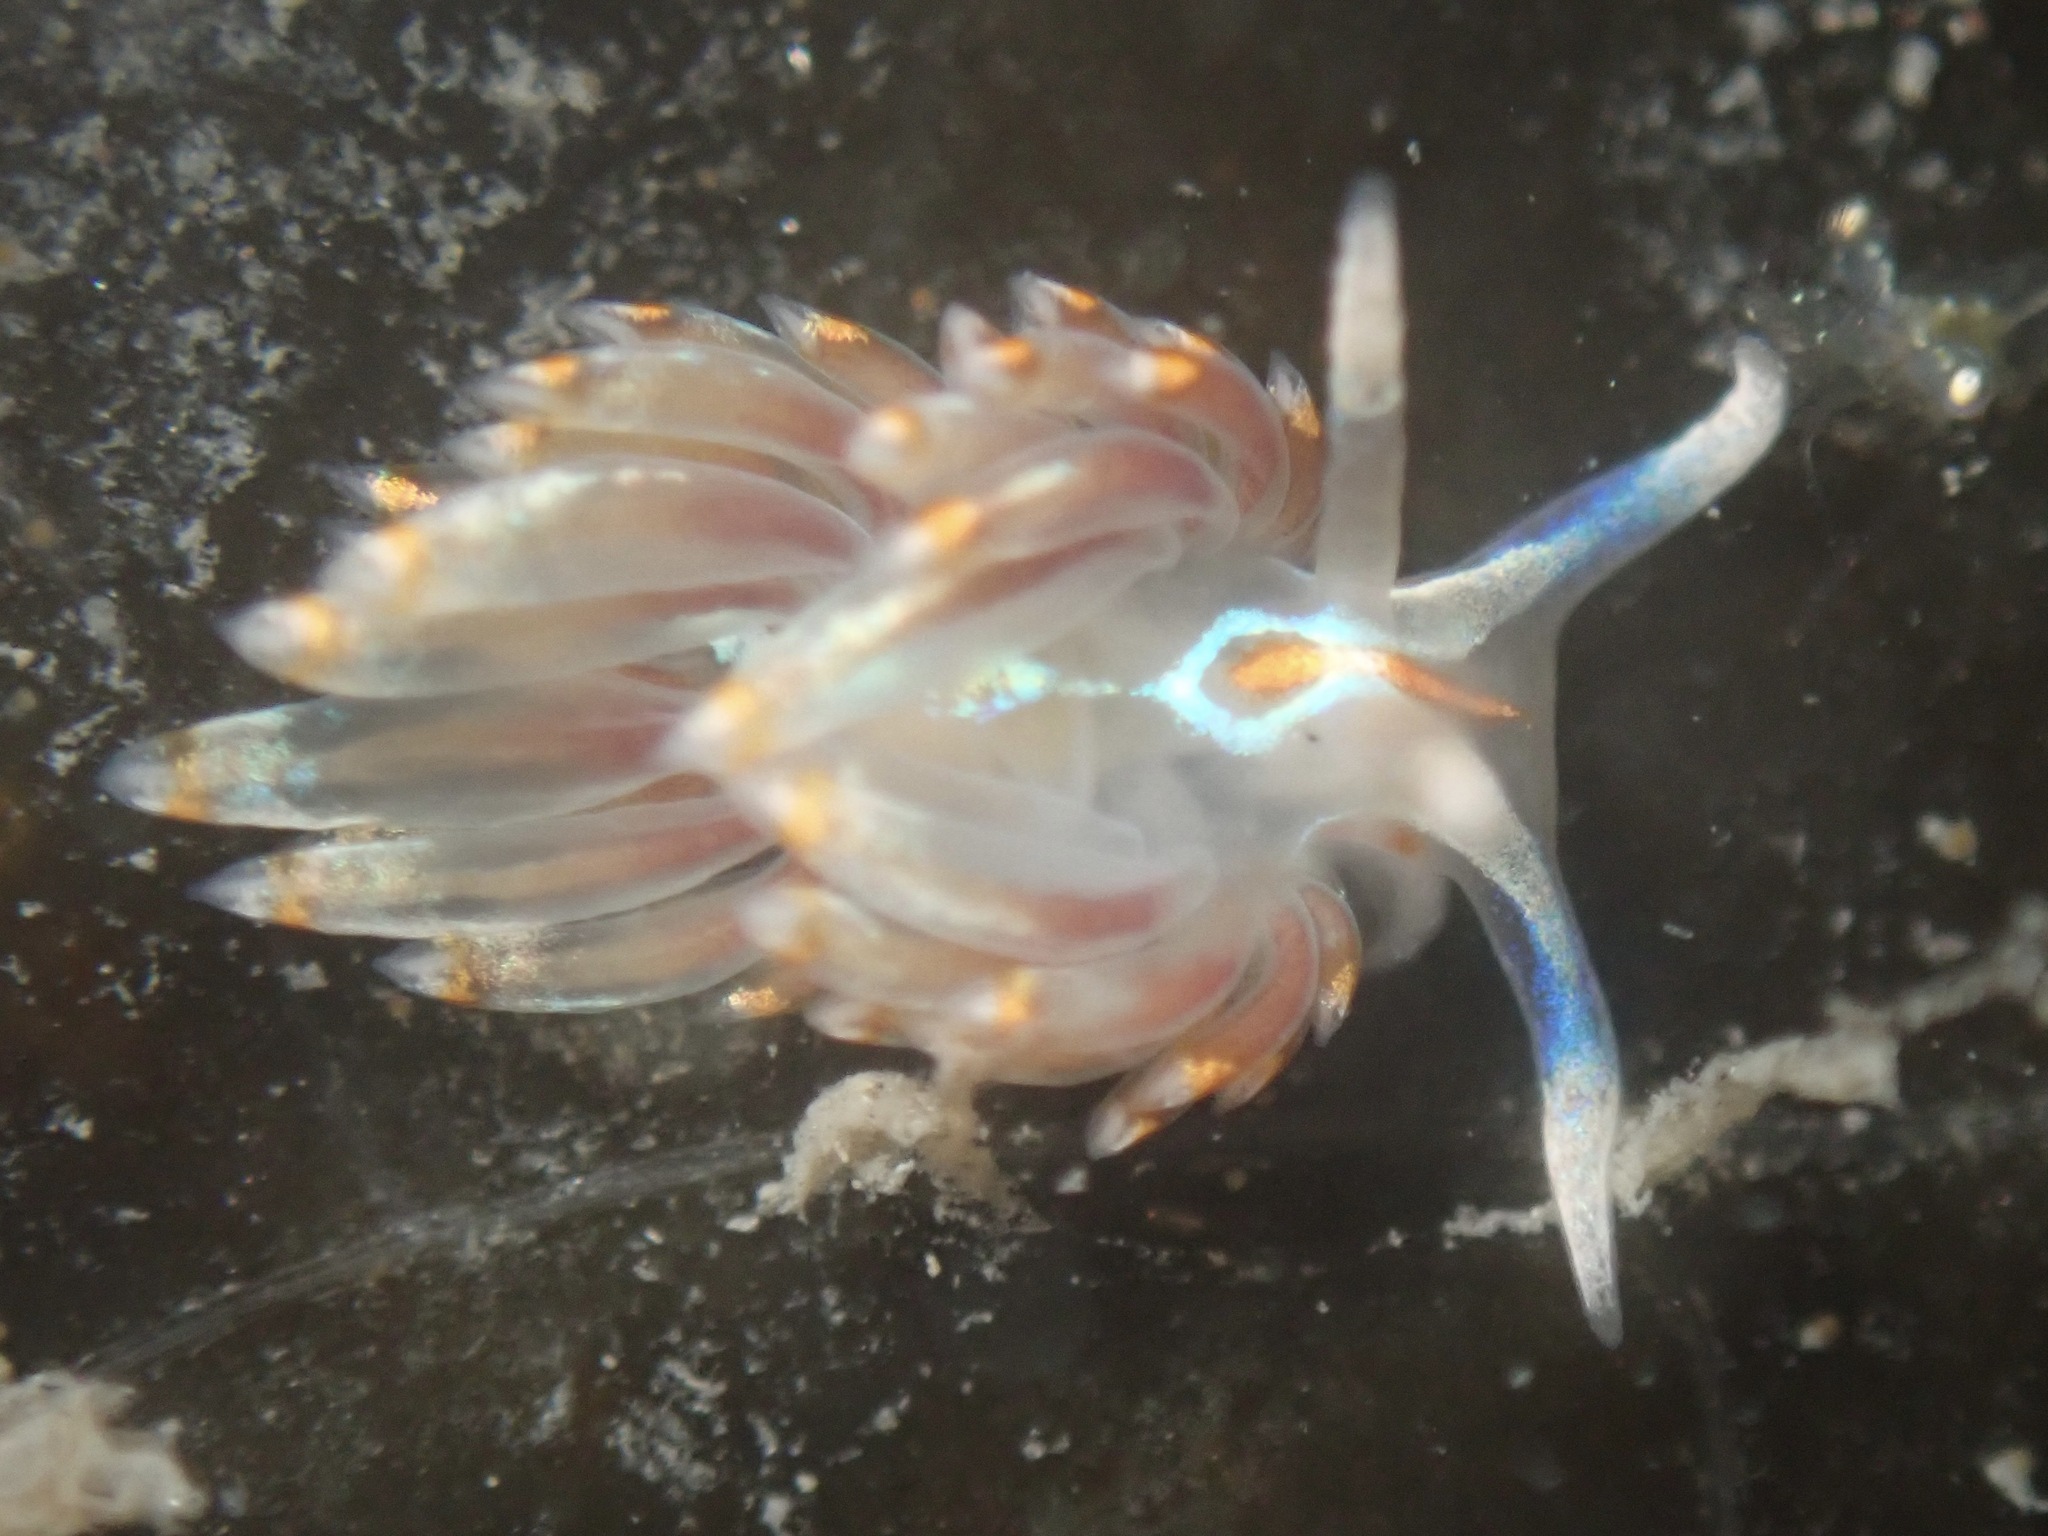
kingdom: Animalia
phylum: Mollusca
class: Gastropoda
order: Nudibranchia
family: Myrrhinidae
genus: Hermissenda
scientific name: Hermissenda opalescens
